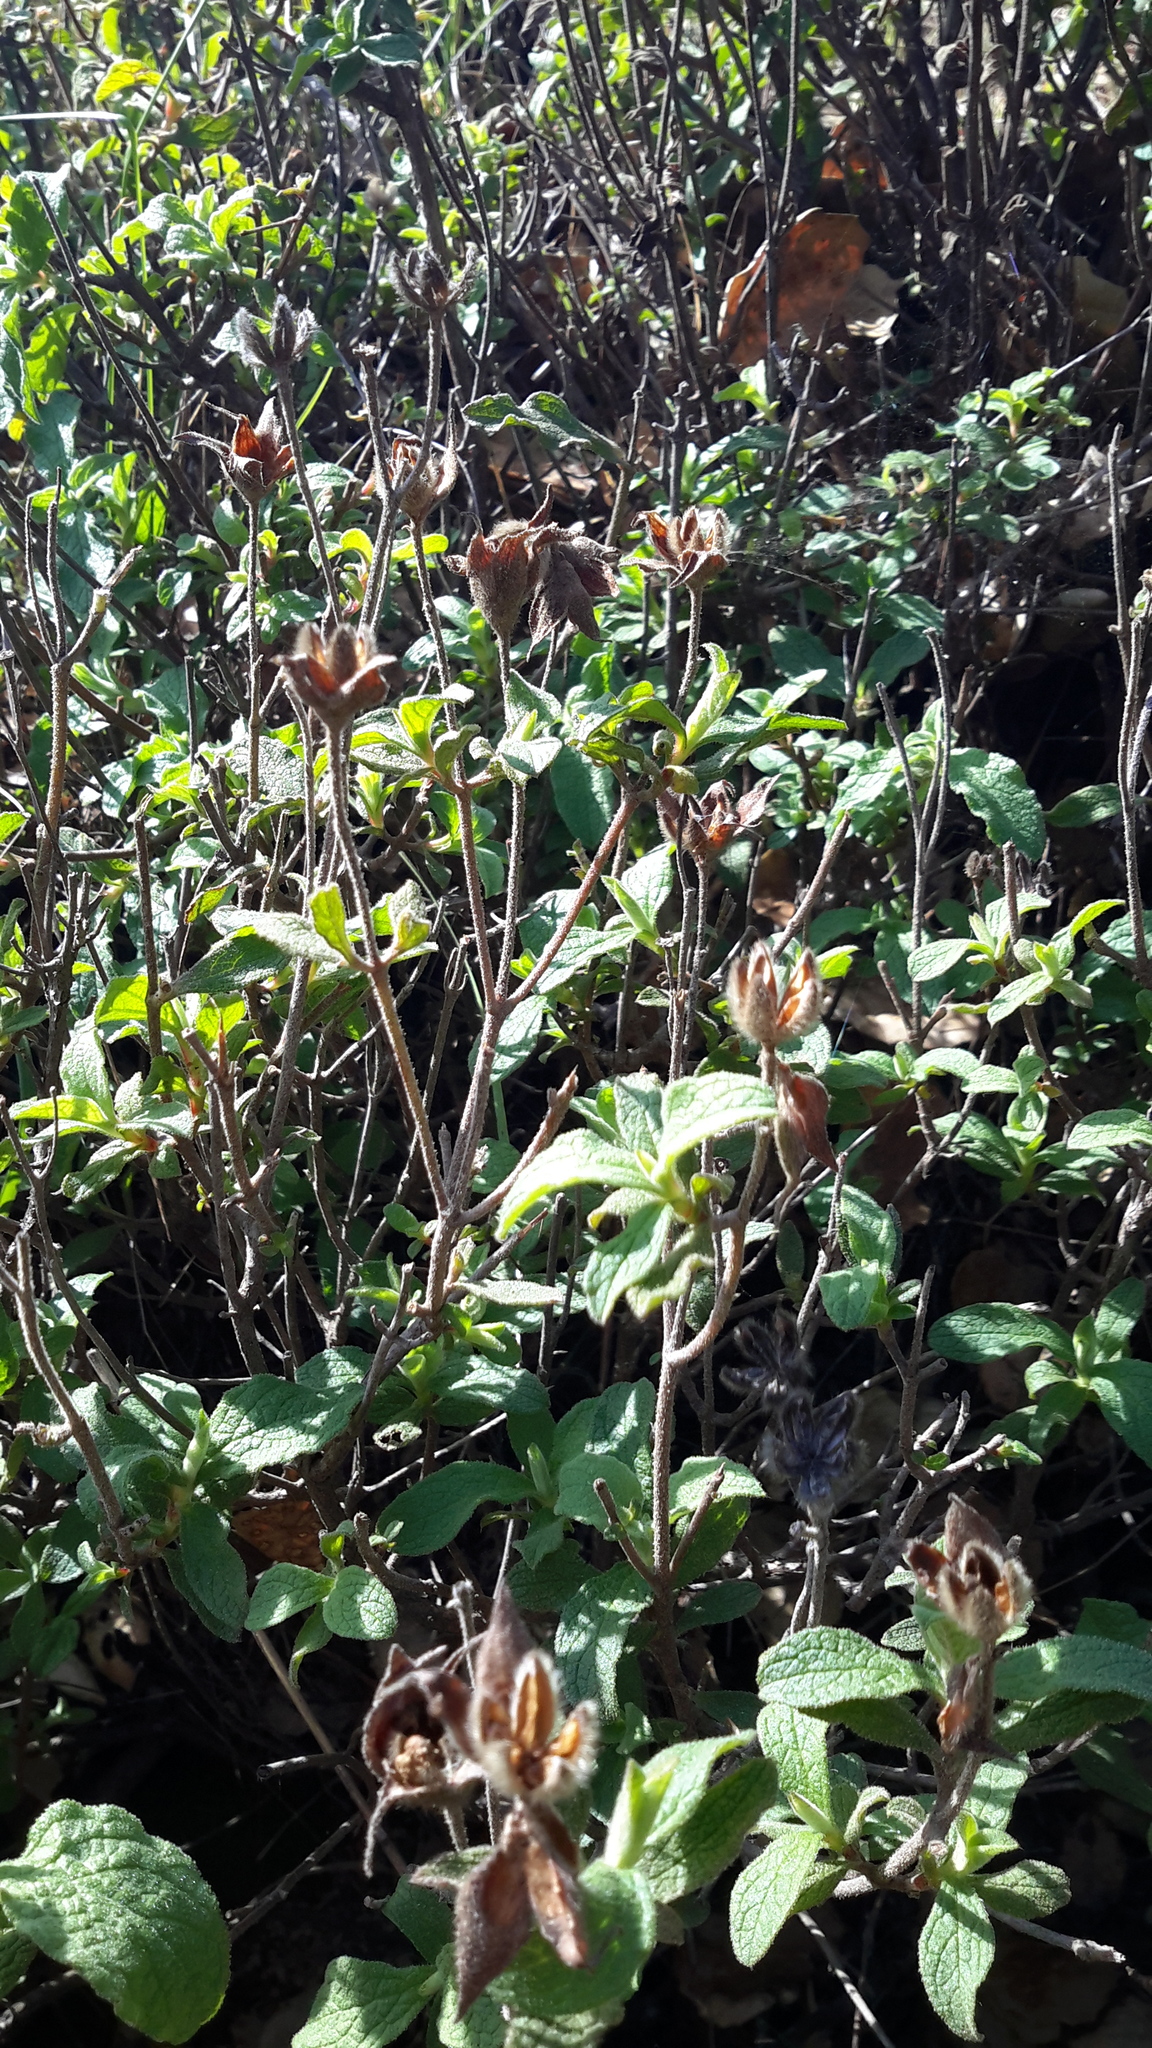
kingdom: Plantae
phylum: Tracheophyta
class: Magnoliopsida
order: Malvales
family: Cistaceae
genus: Cistus
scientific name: Cistus tauricus
